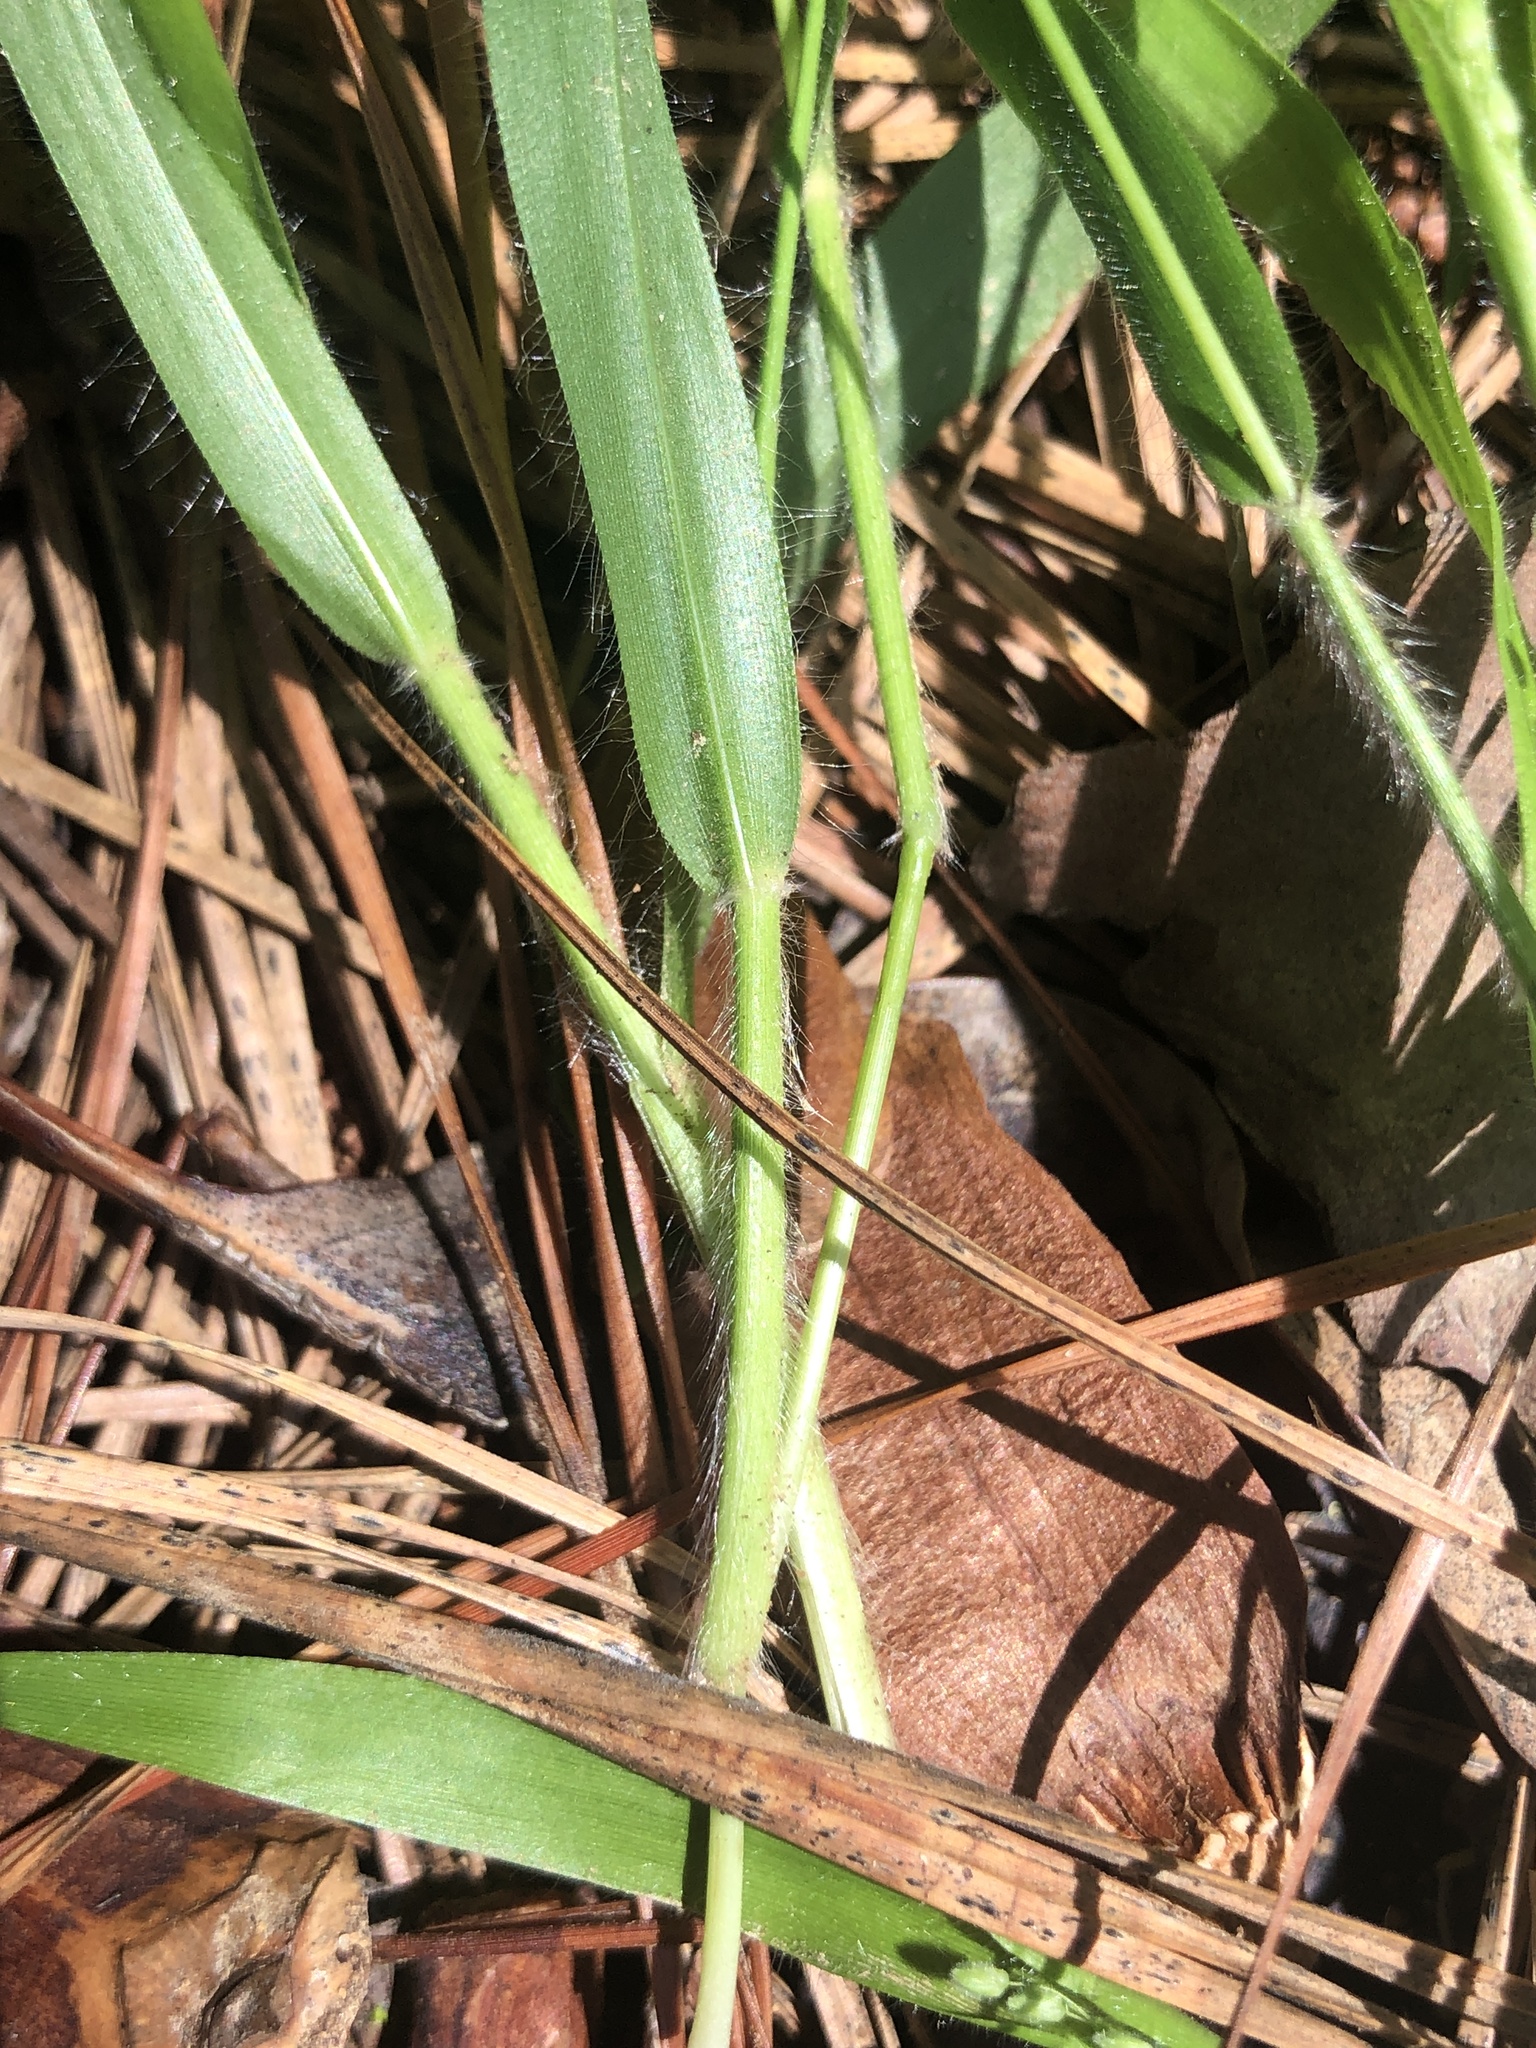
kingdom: Plantae
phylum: Tracheophyta
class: Liliopsida
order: Poales
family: Poaceae
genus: Dichanthelium
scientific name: Dichanthelium laxiflorum
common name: Soft-tuft panic grass
